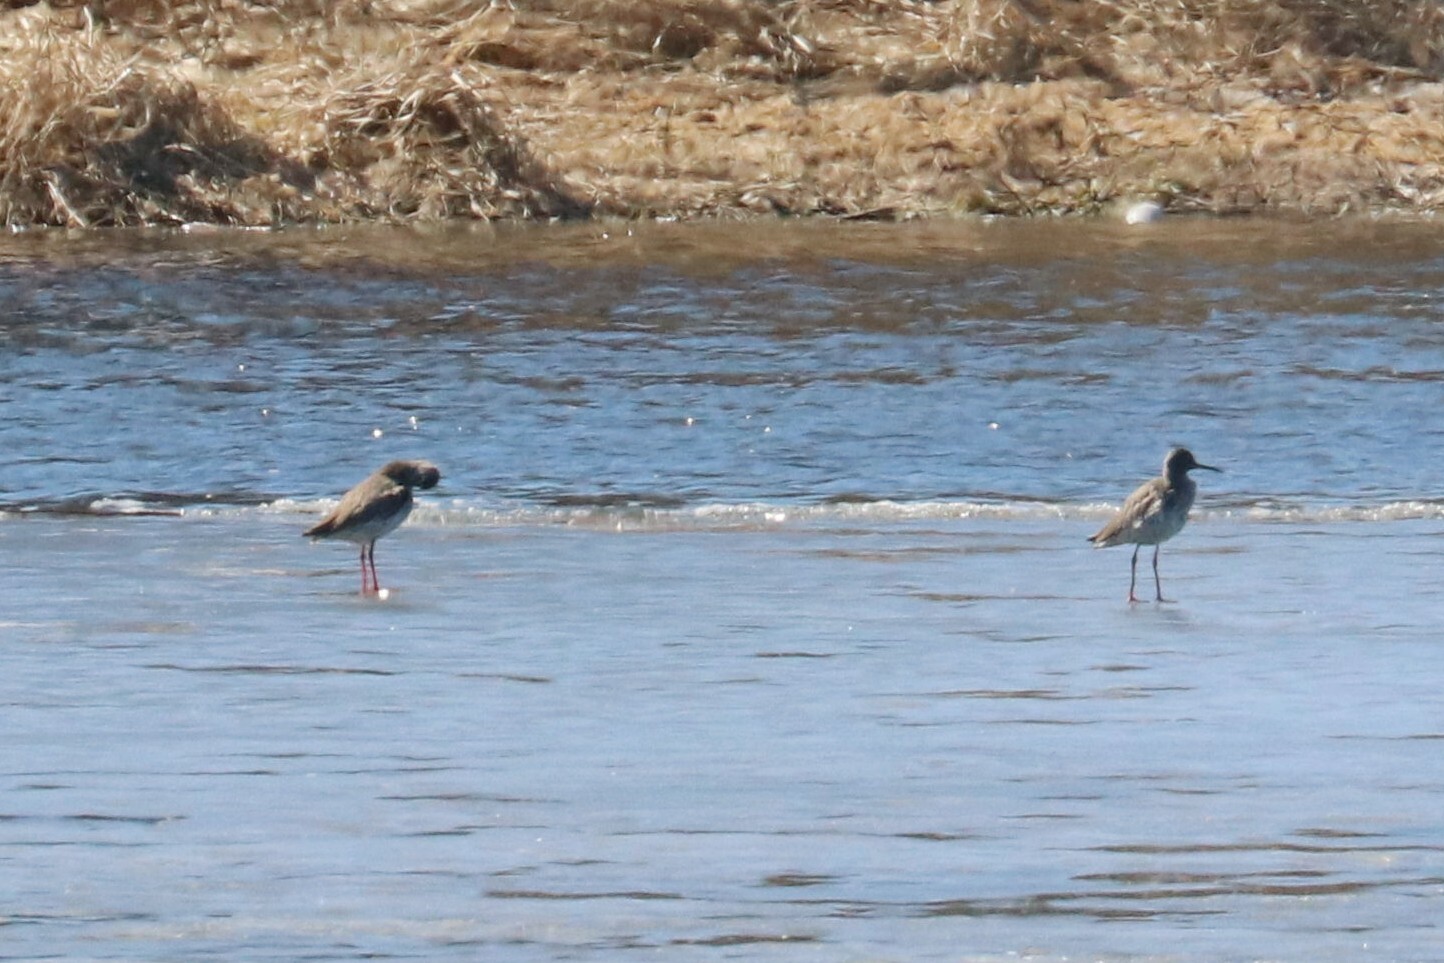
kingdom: Animalia
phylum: Chordata
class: Aves
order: Charadriiformes
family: Scolopacidae
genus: Tringa
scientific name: Tringa totanus
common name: Common redshank
